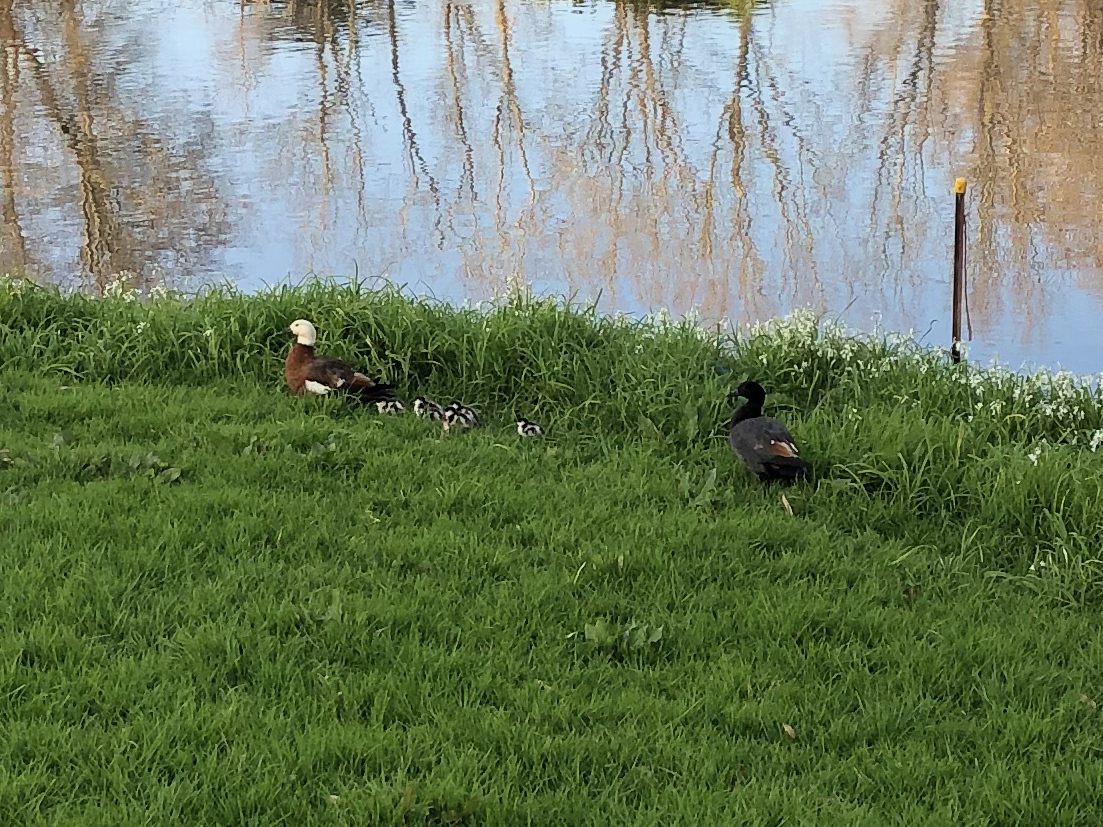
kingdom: Animalia
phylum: Chordata
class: Aves
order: Anseriformes
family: Anatidae
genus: Tadorna
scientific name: Tadorna variegata
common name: Paradise shelduck
